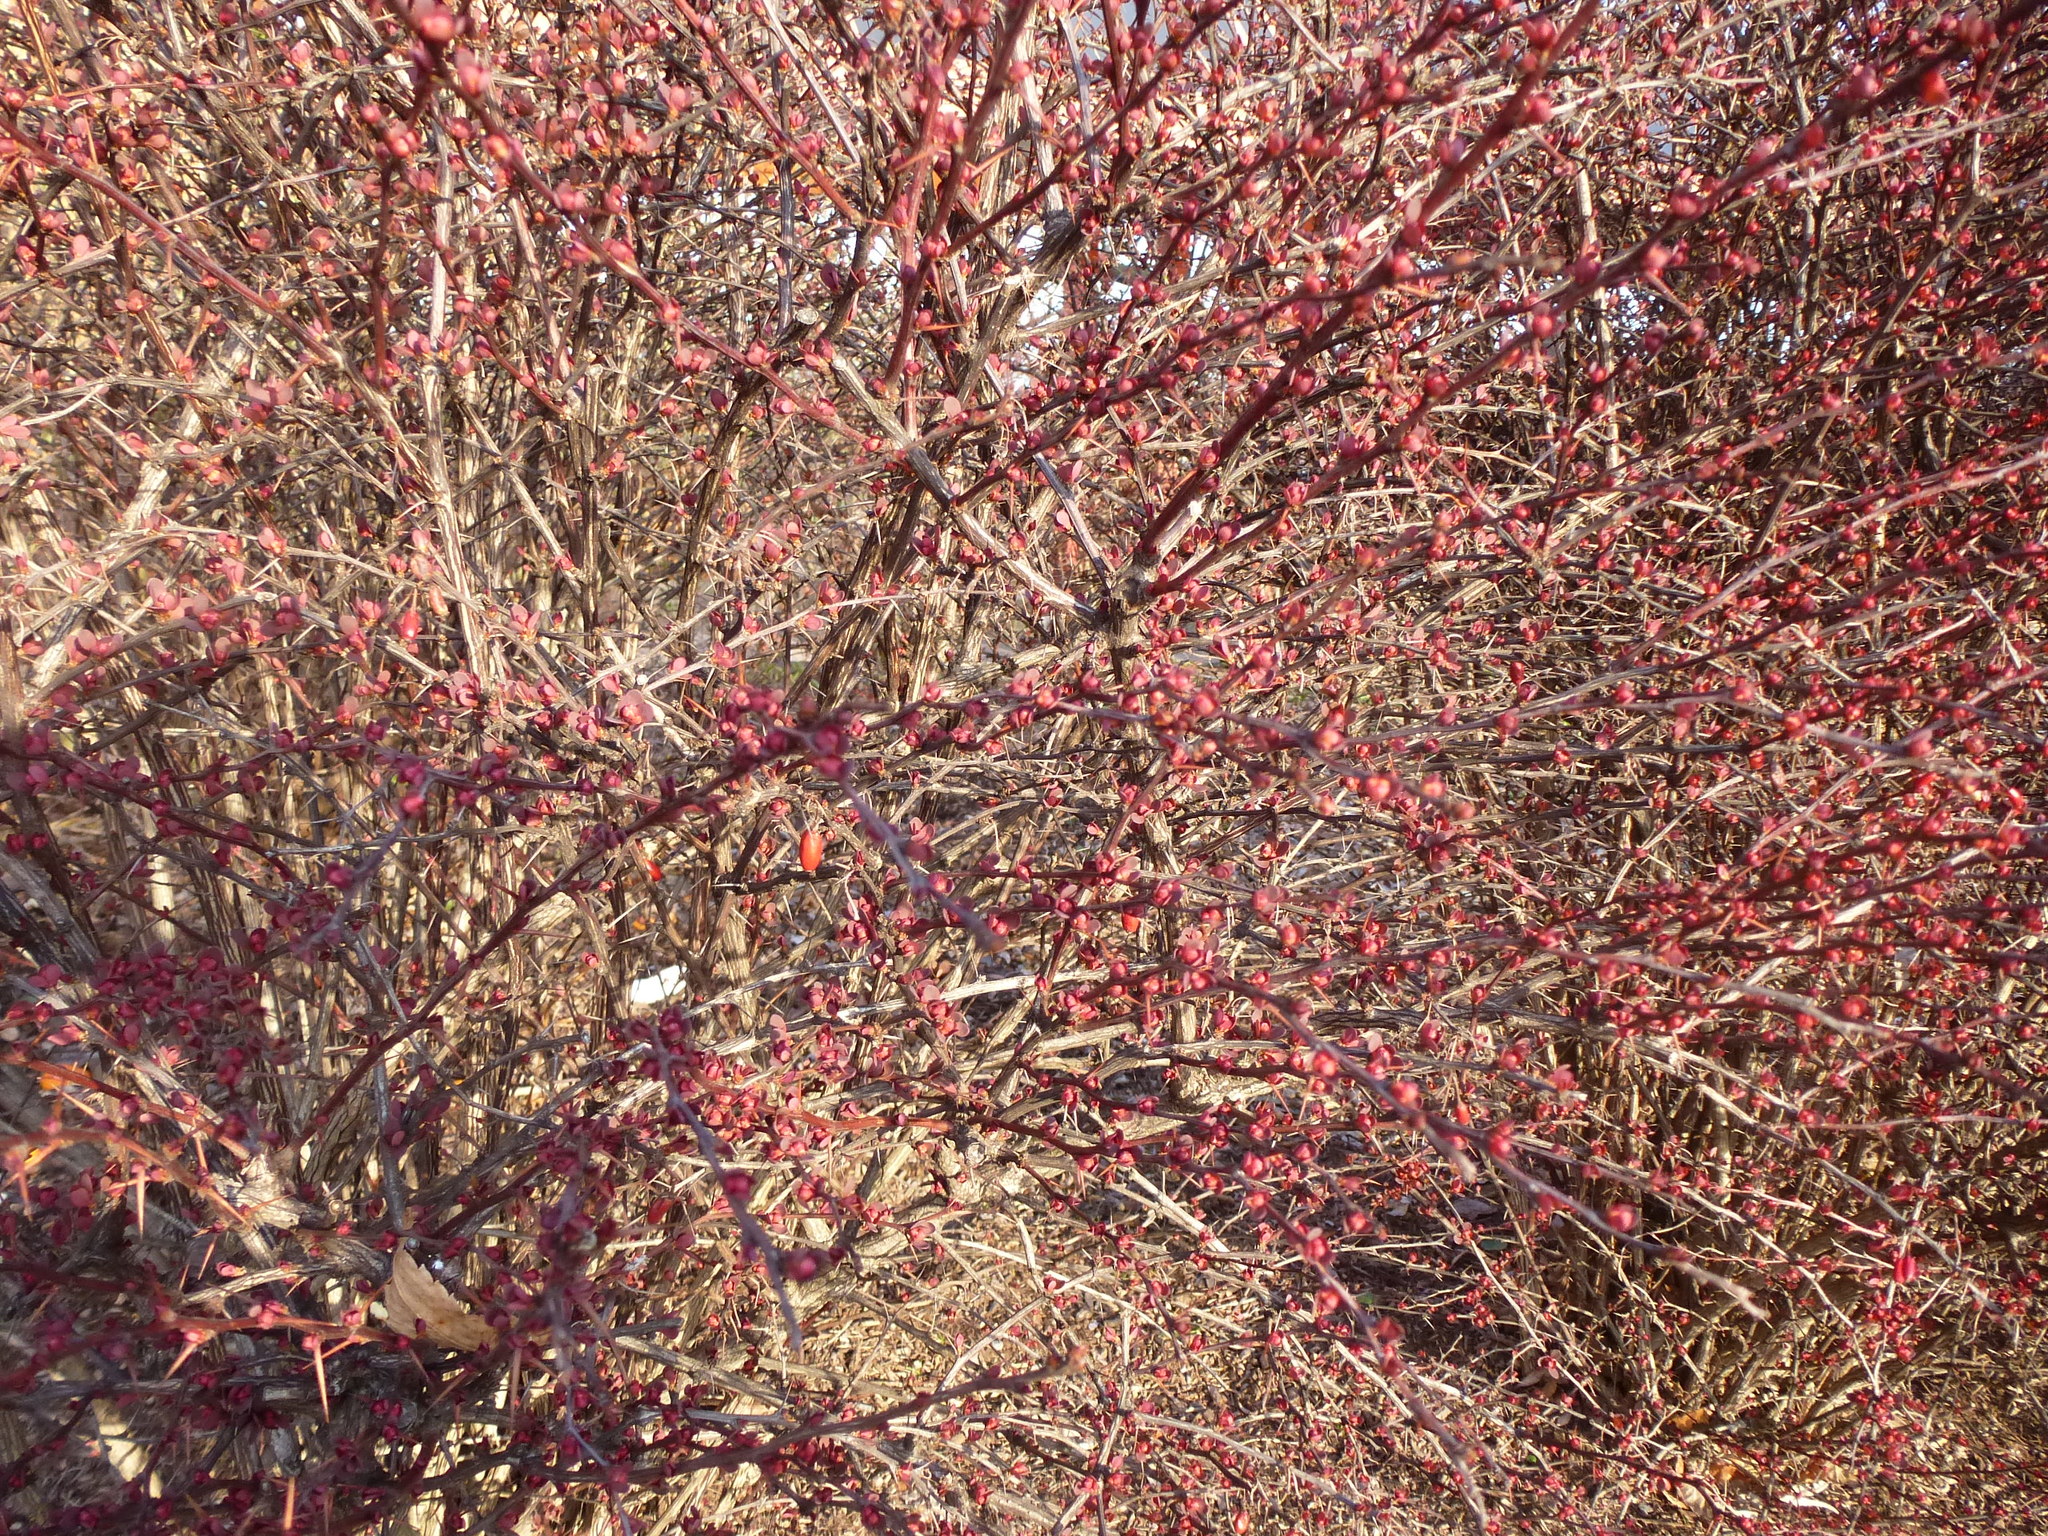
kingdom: Plantae
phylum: Tracheophyta
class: Magnoliopsida
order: Ranunculales
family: Berberidaceae
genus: Berberis
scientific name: Berberis thunbergii
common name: Japanese barberry
